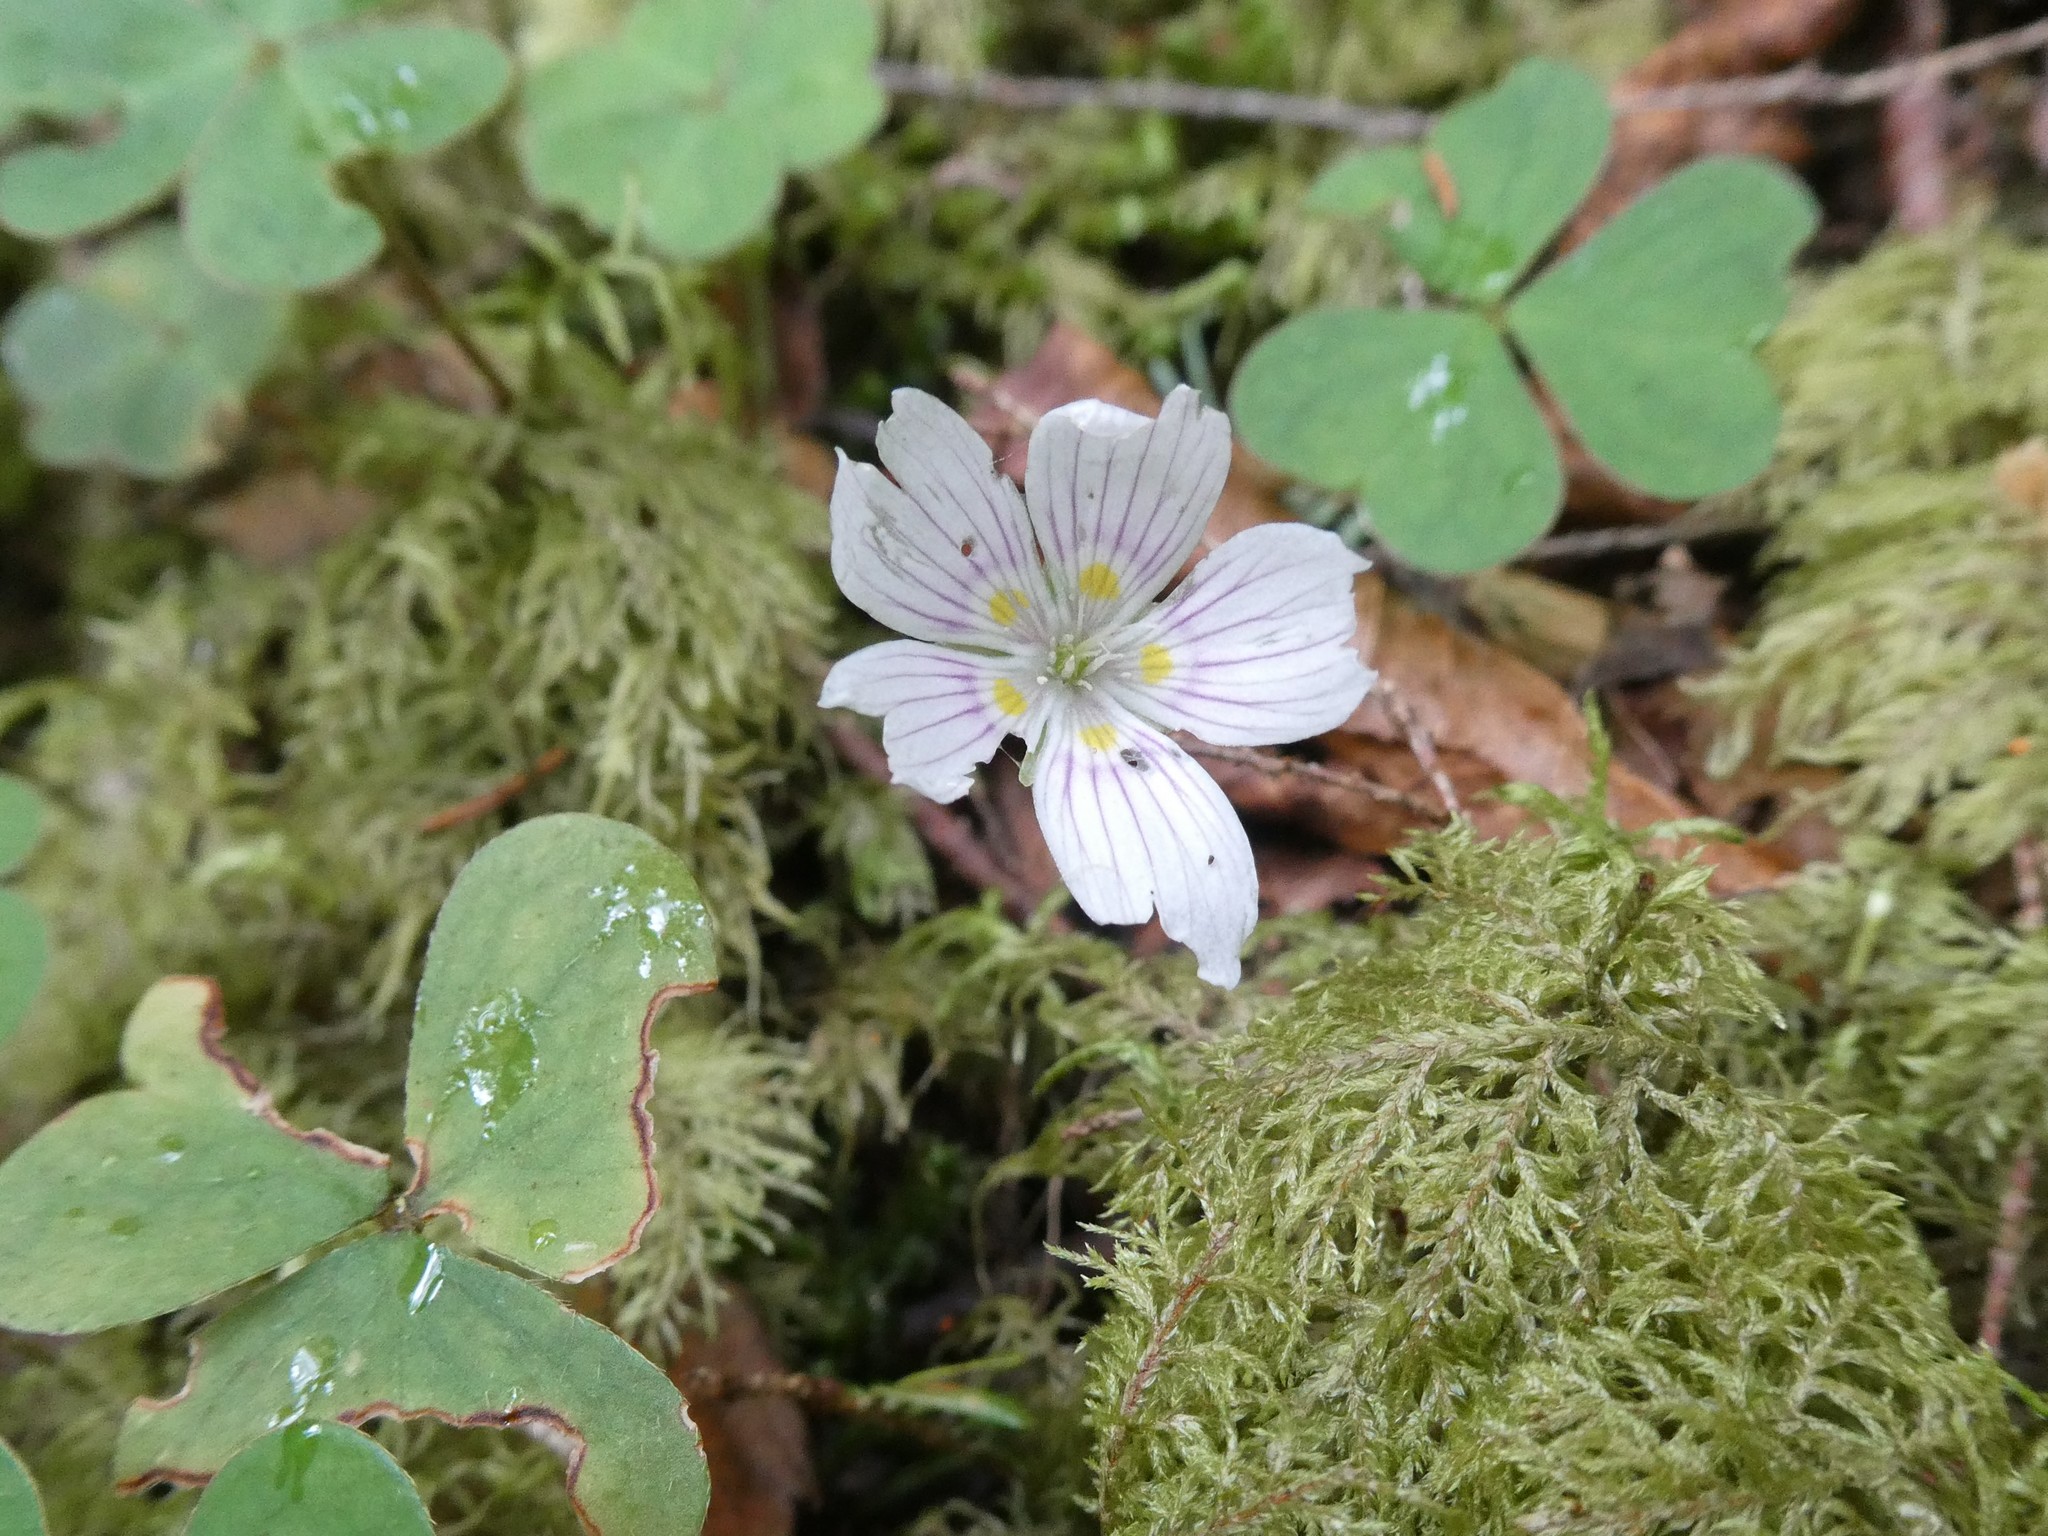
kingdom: Plantae
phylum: Tracheophyta
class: Magnoliopsida
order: Oxalidales
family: Oxalidaceae
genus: Oxalis
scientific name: Oxalis montana
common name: American wood-sorrel
